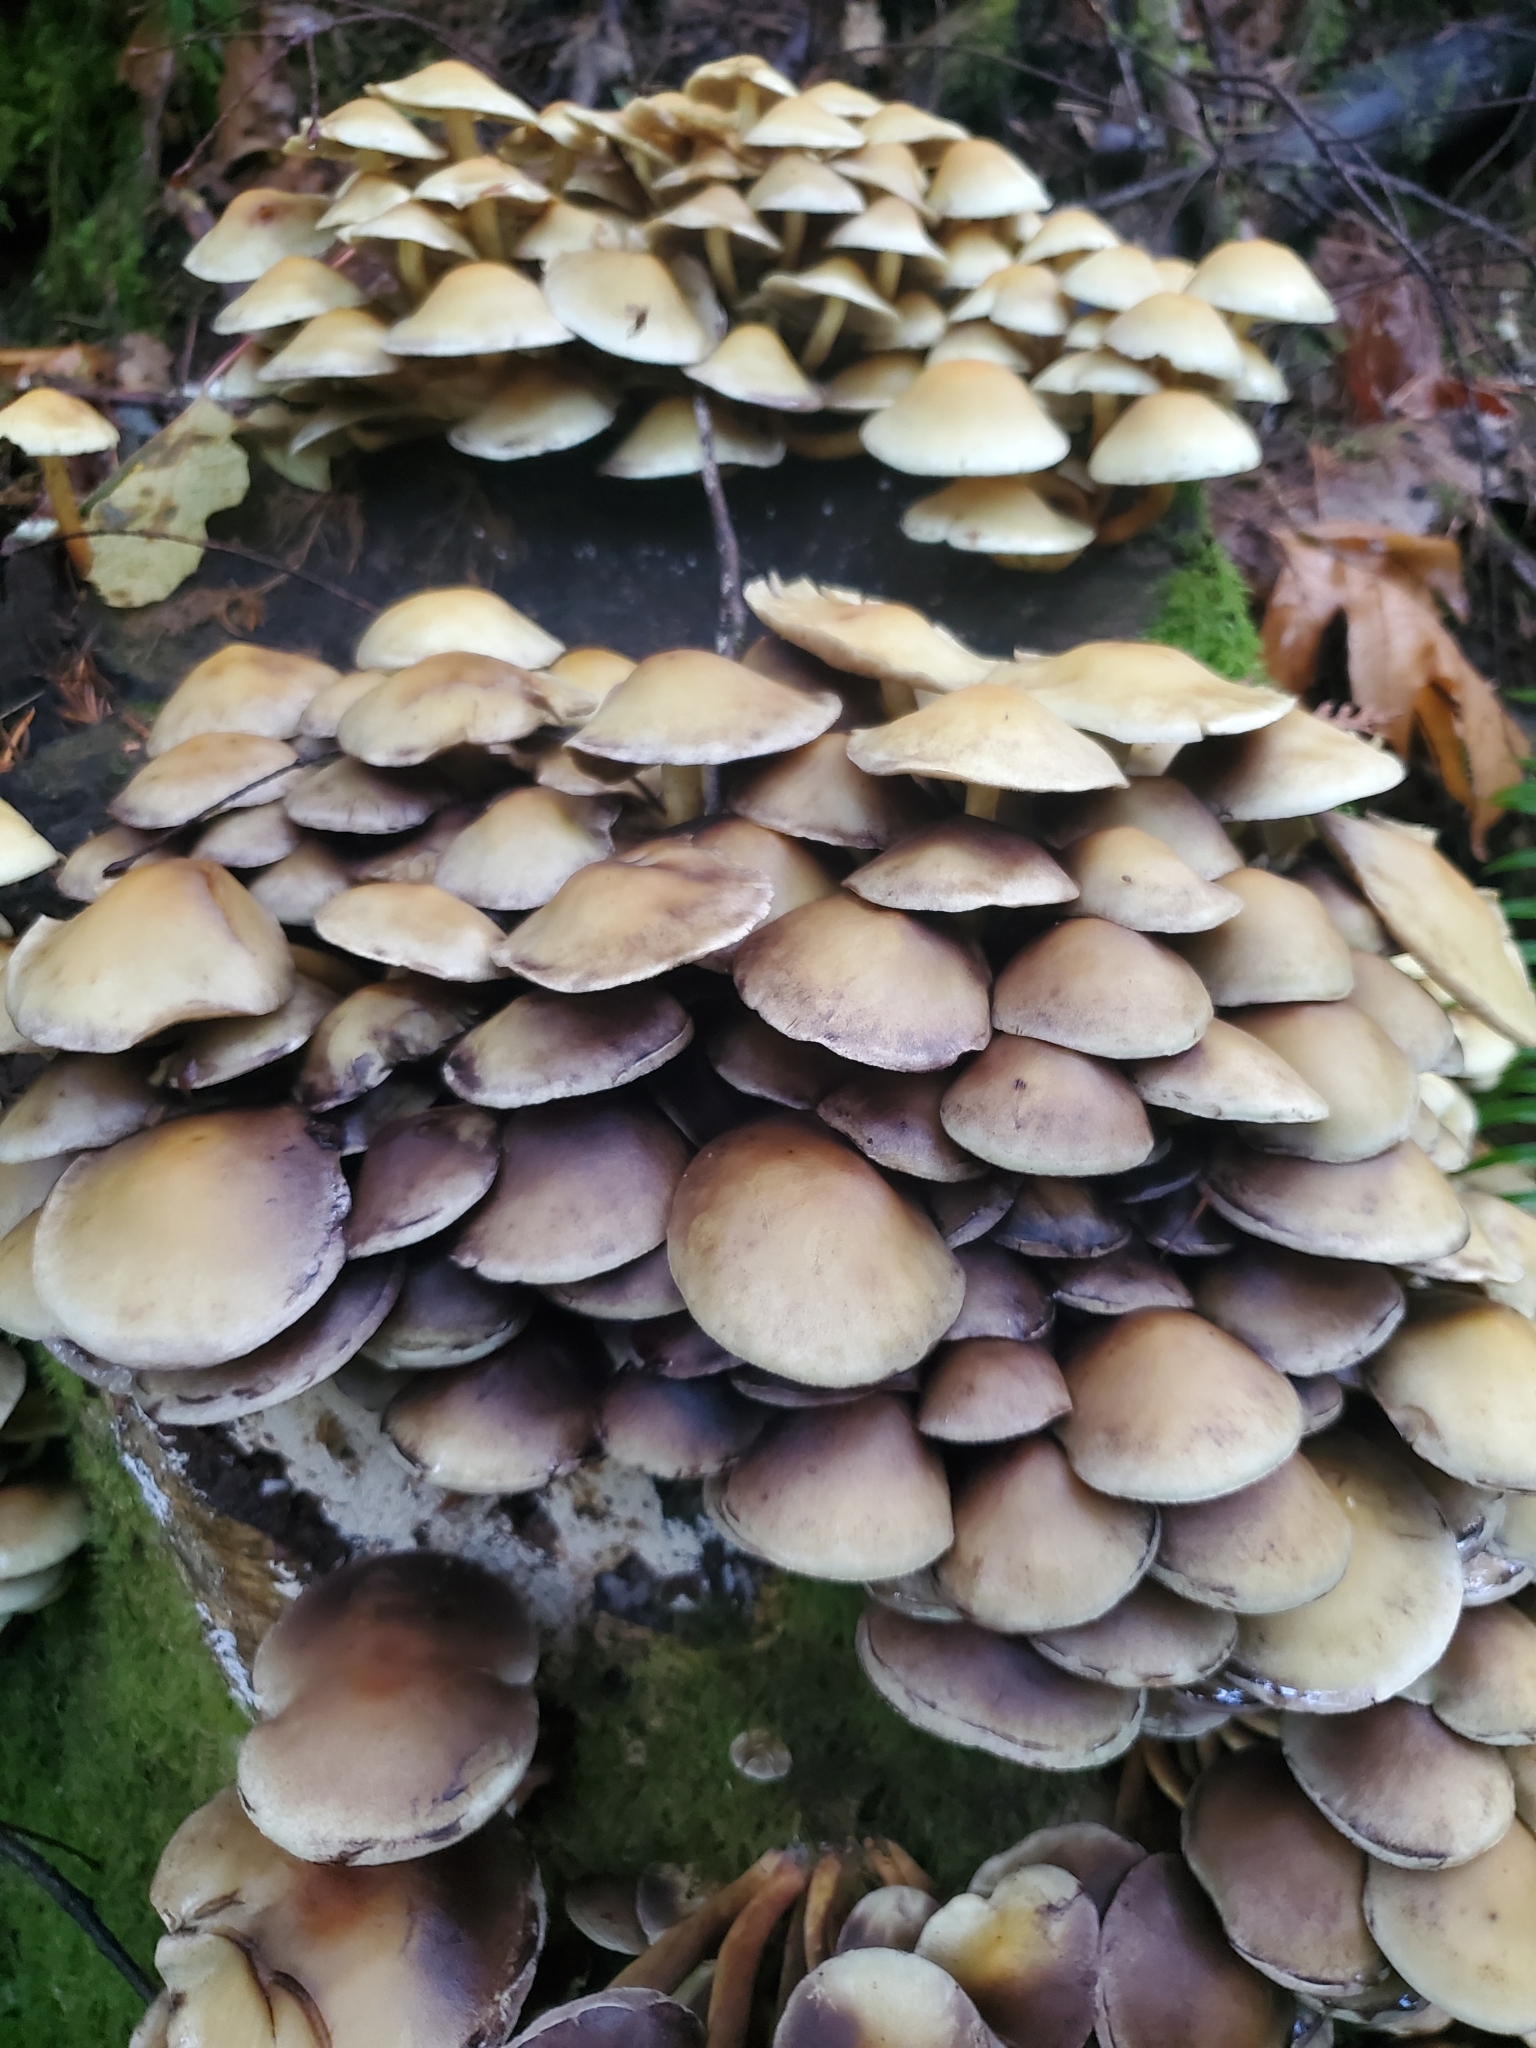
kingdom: Fungi
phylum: Basidiomycota
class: Agaricomycetes
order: Agaricales
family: Strophariaceae
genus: Hypholoma
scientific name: Hypholoma fasciculare
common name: Sulphur tuft
